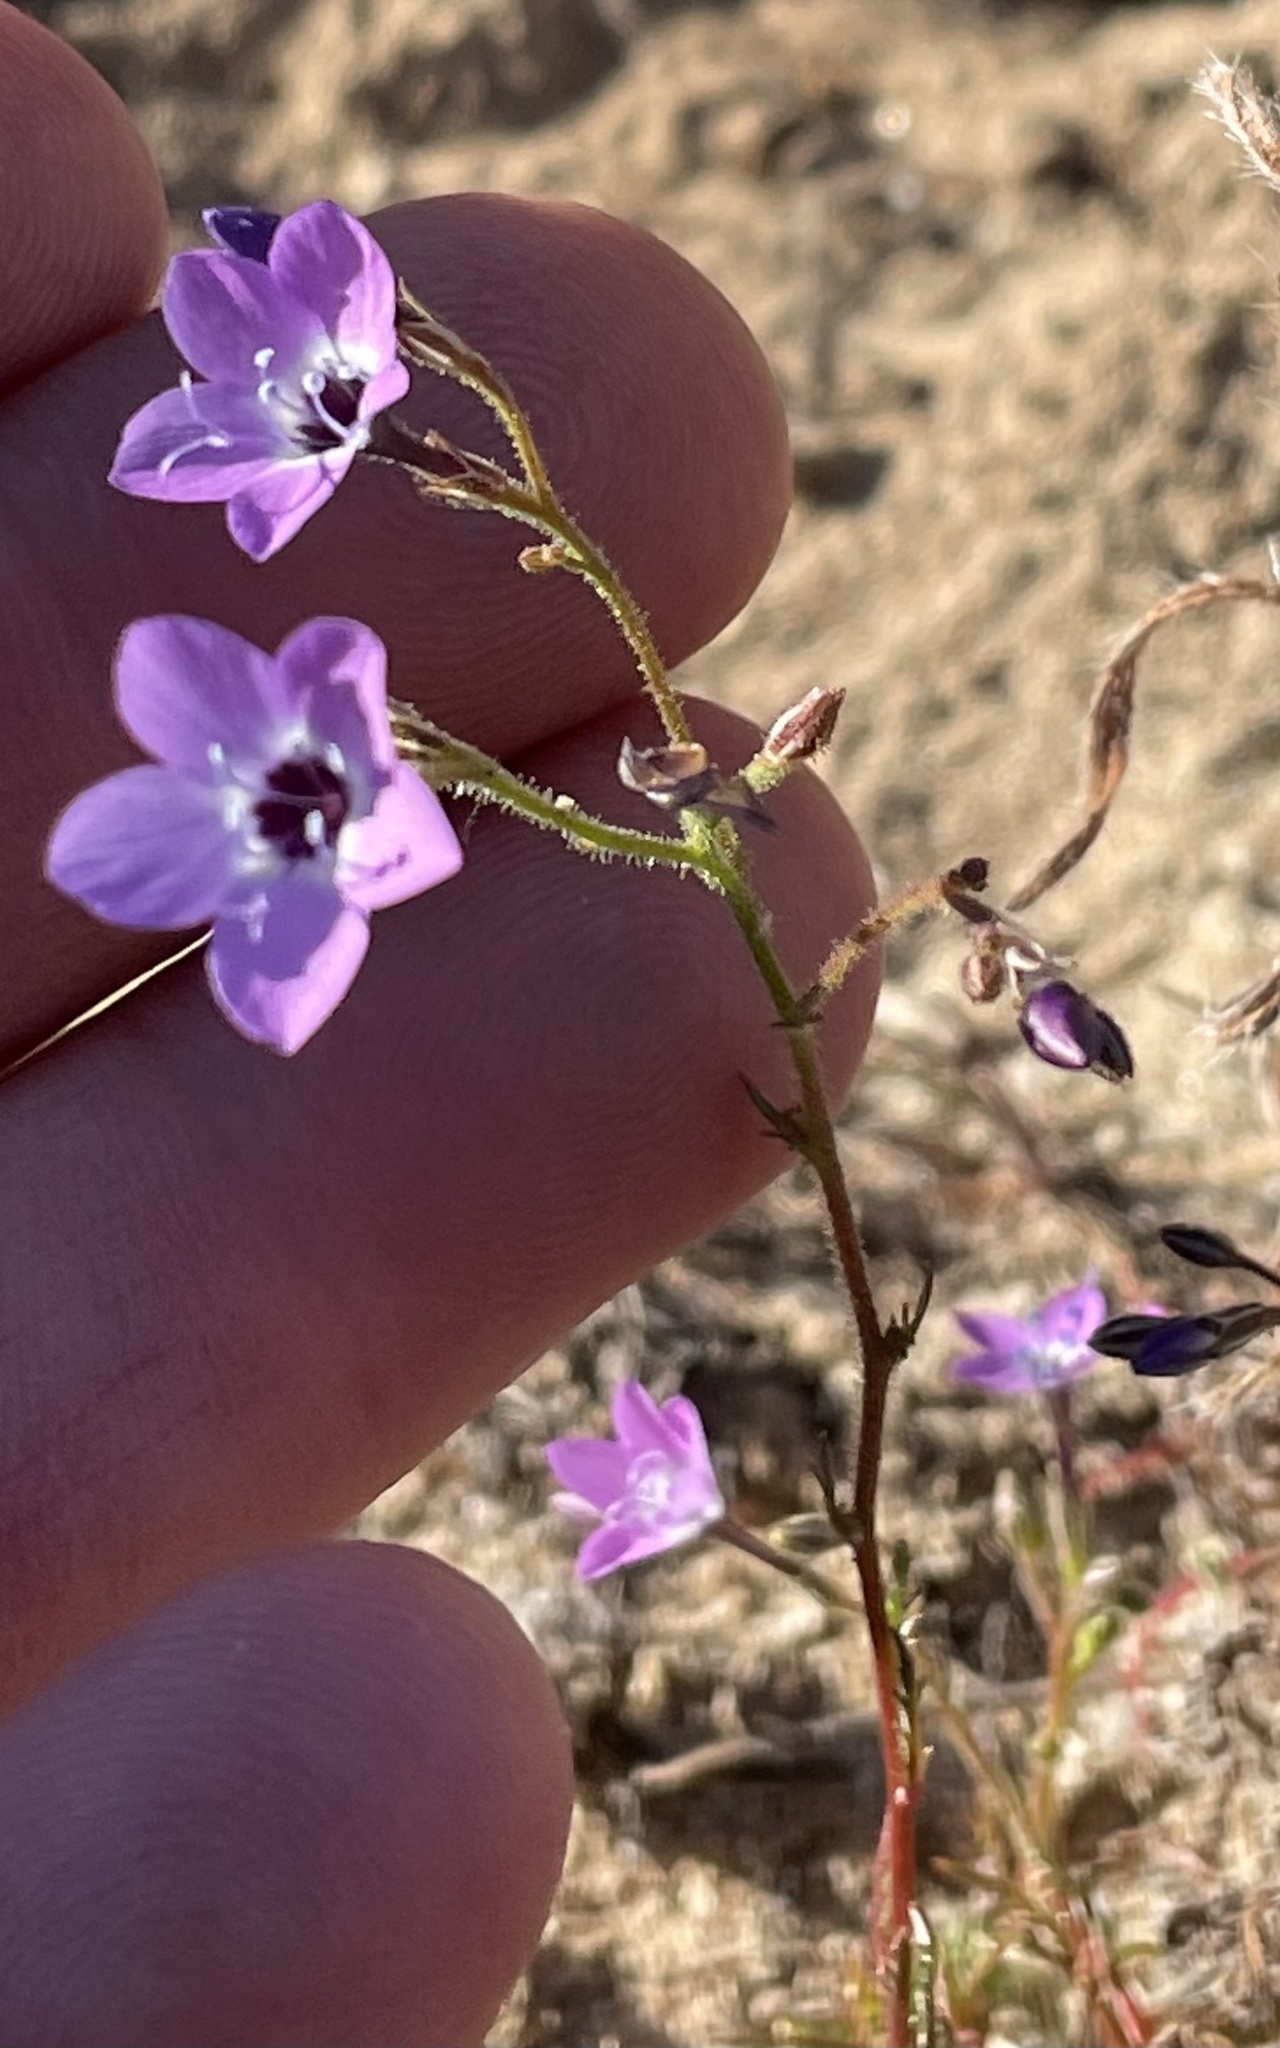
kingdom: Plantae
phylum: Tracheophyta
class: Magnoliopsida
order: Ericales
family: Polemoniaceae
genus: Gilia
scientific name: Gilia tenuiflora
